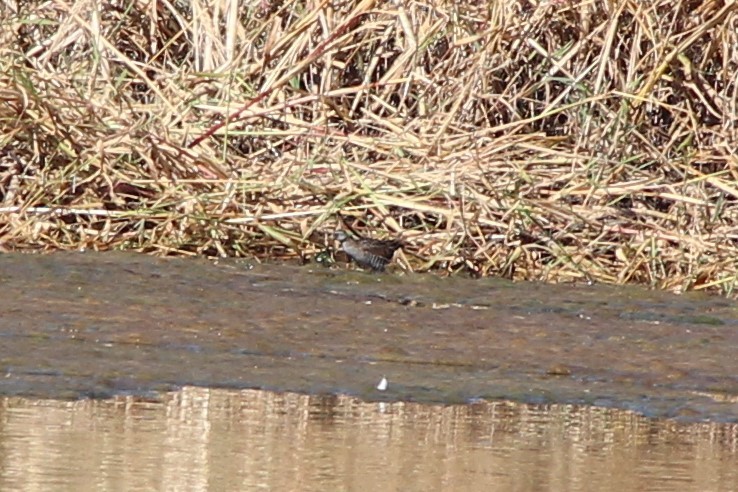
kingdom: Animalia
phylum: Chordata
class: Aves
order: Gruiformes
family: Rallidae
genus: Porzana
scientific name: Porzana carolina
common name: Sora
